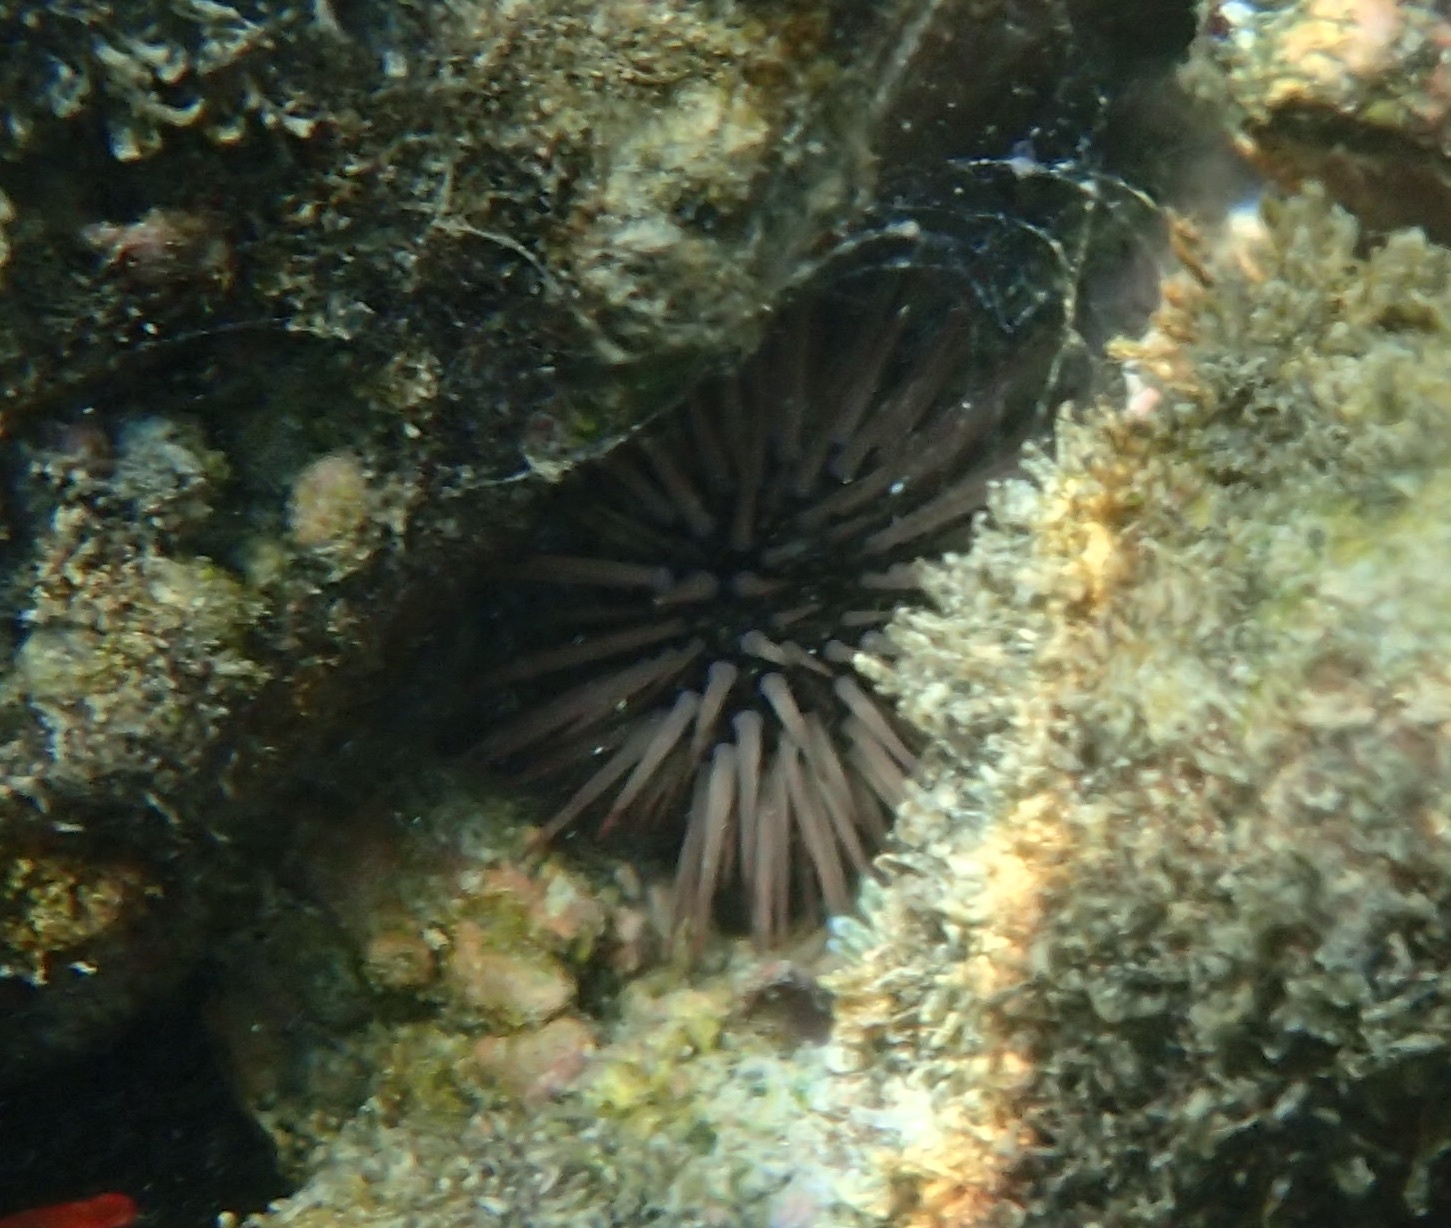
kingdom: Animalia
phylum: Echinodermata
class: Echinoidea
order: Camarodonta
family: Echinometridae
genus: Echinometra
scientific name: Echinometra mathaei
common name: Rock-boring urchin
